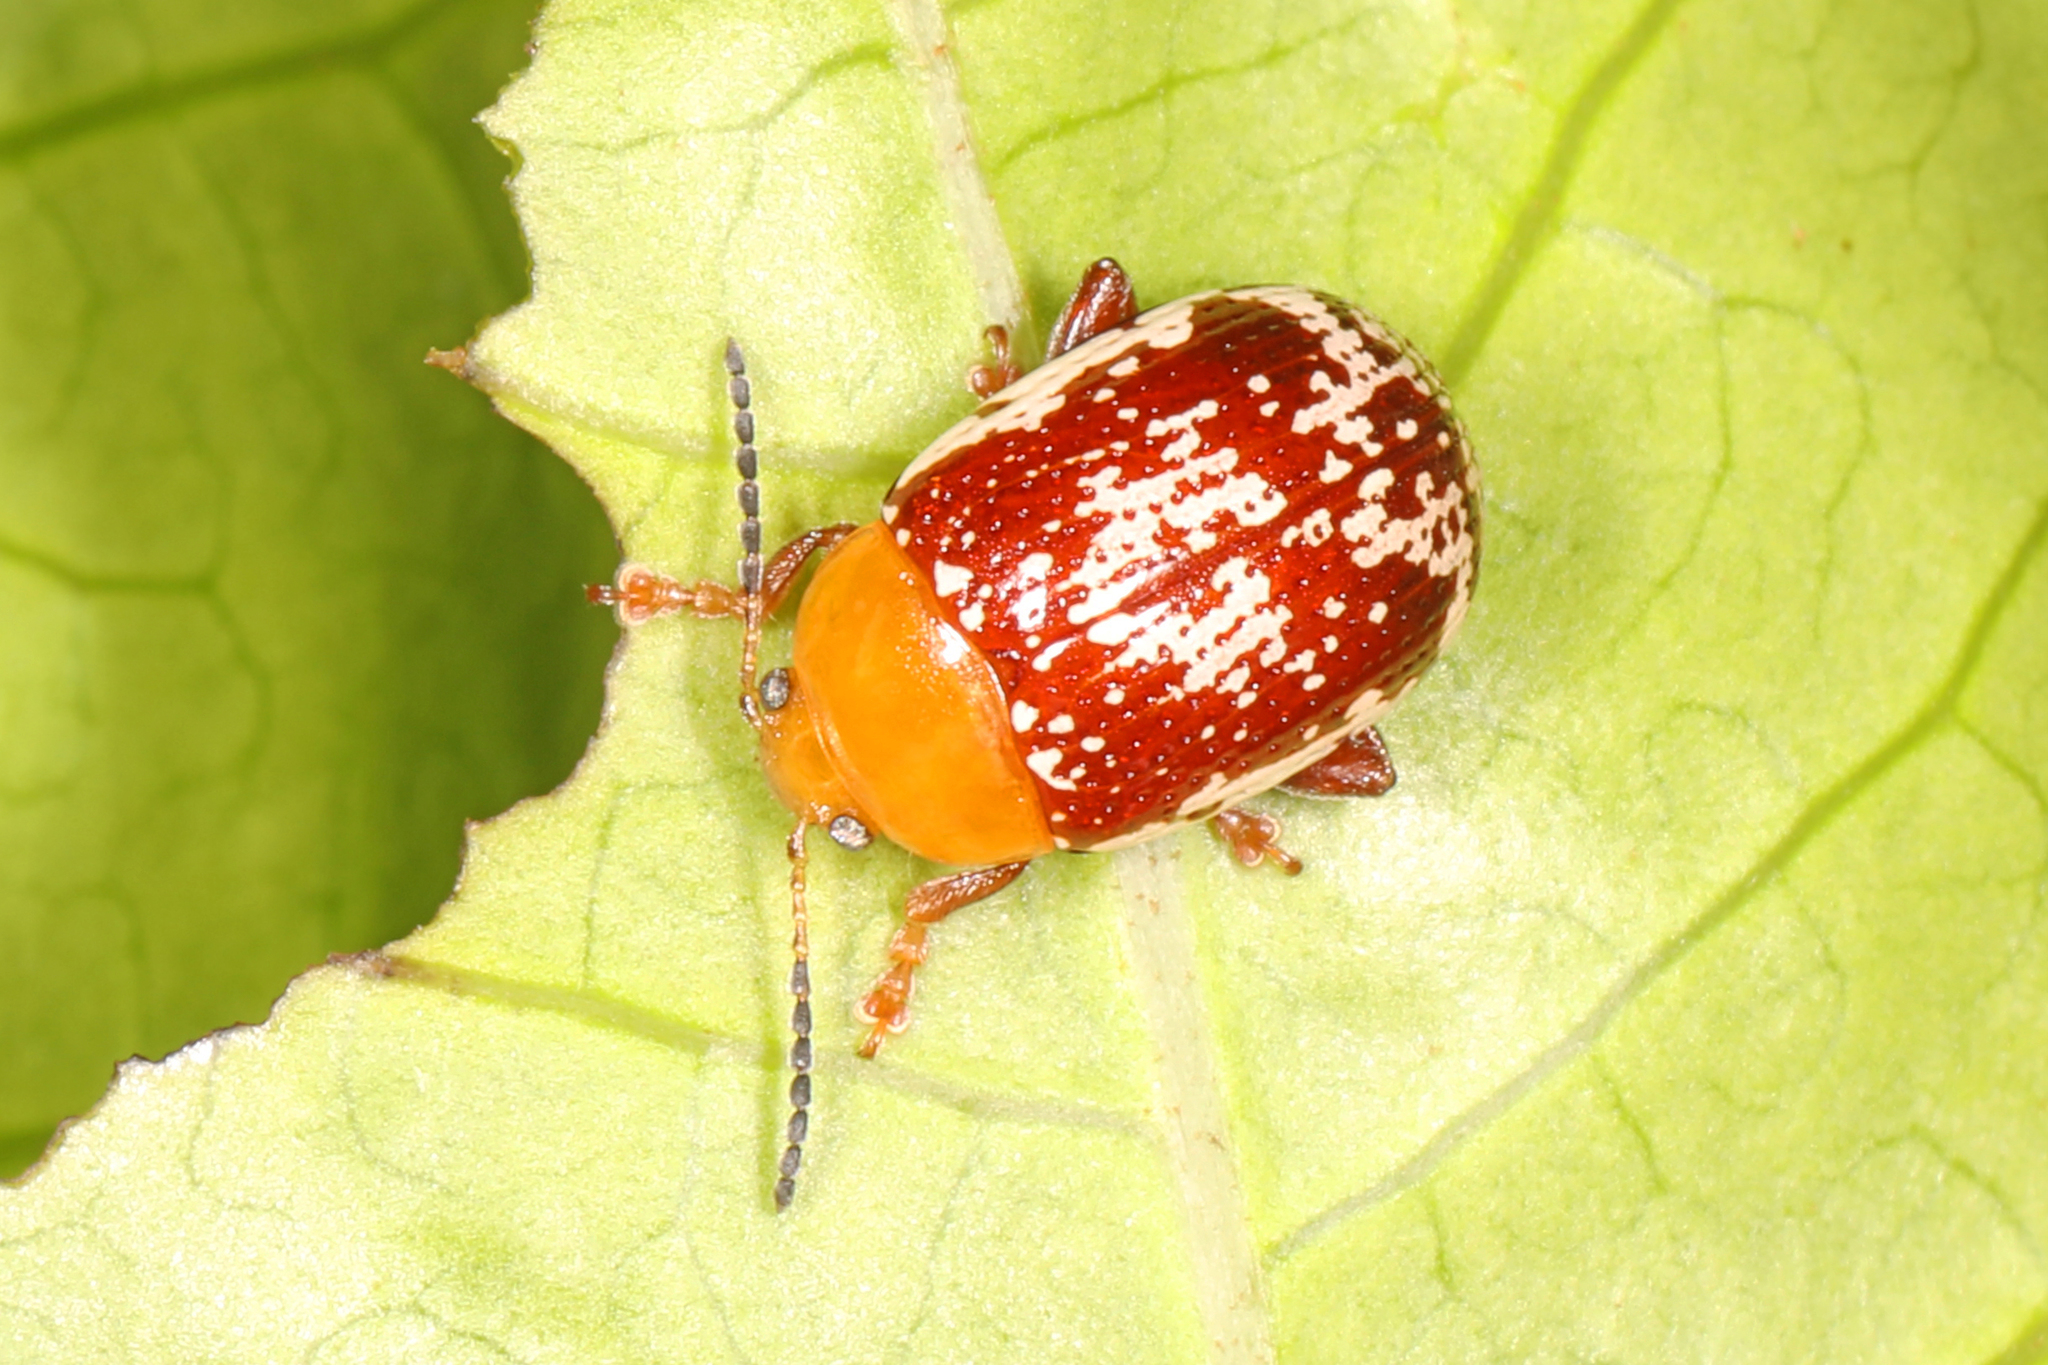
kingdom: Animalia
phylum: Arthropoda
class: Insecta
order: Coleoptera
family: Chrysomelidae
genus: Blepharida
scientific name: Blepharida rhois
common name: Sumac flea beetle
